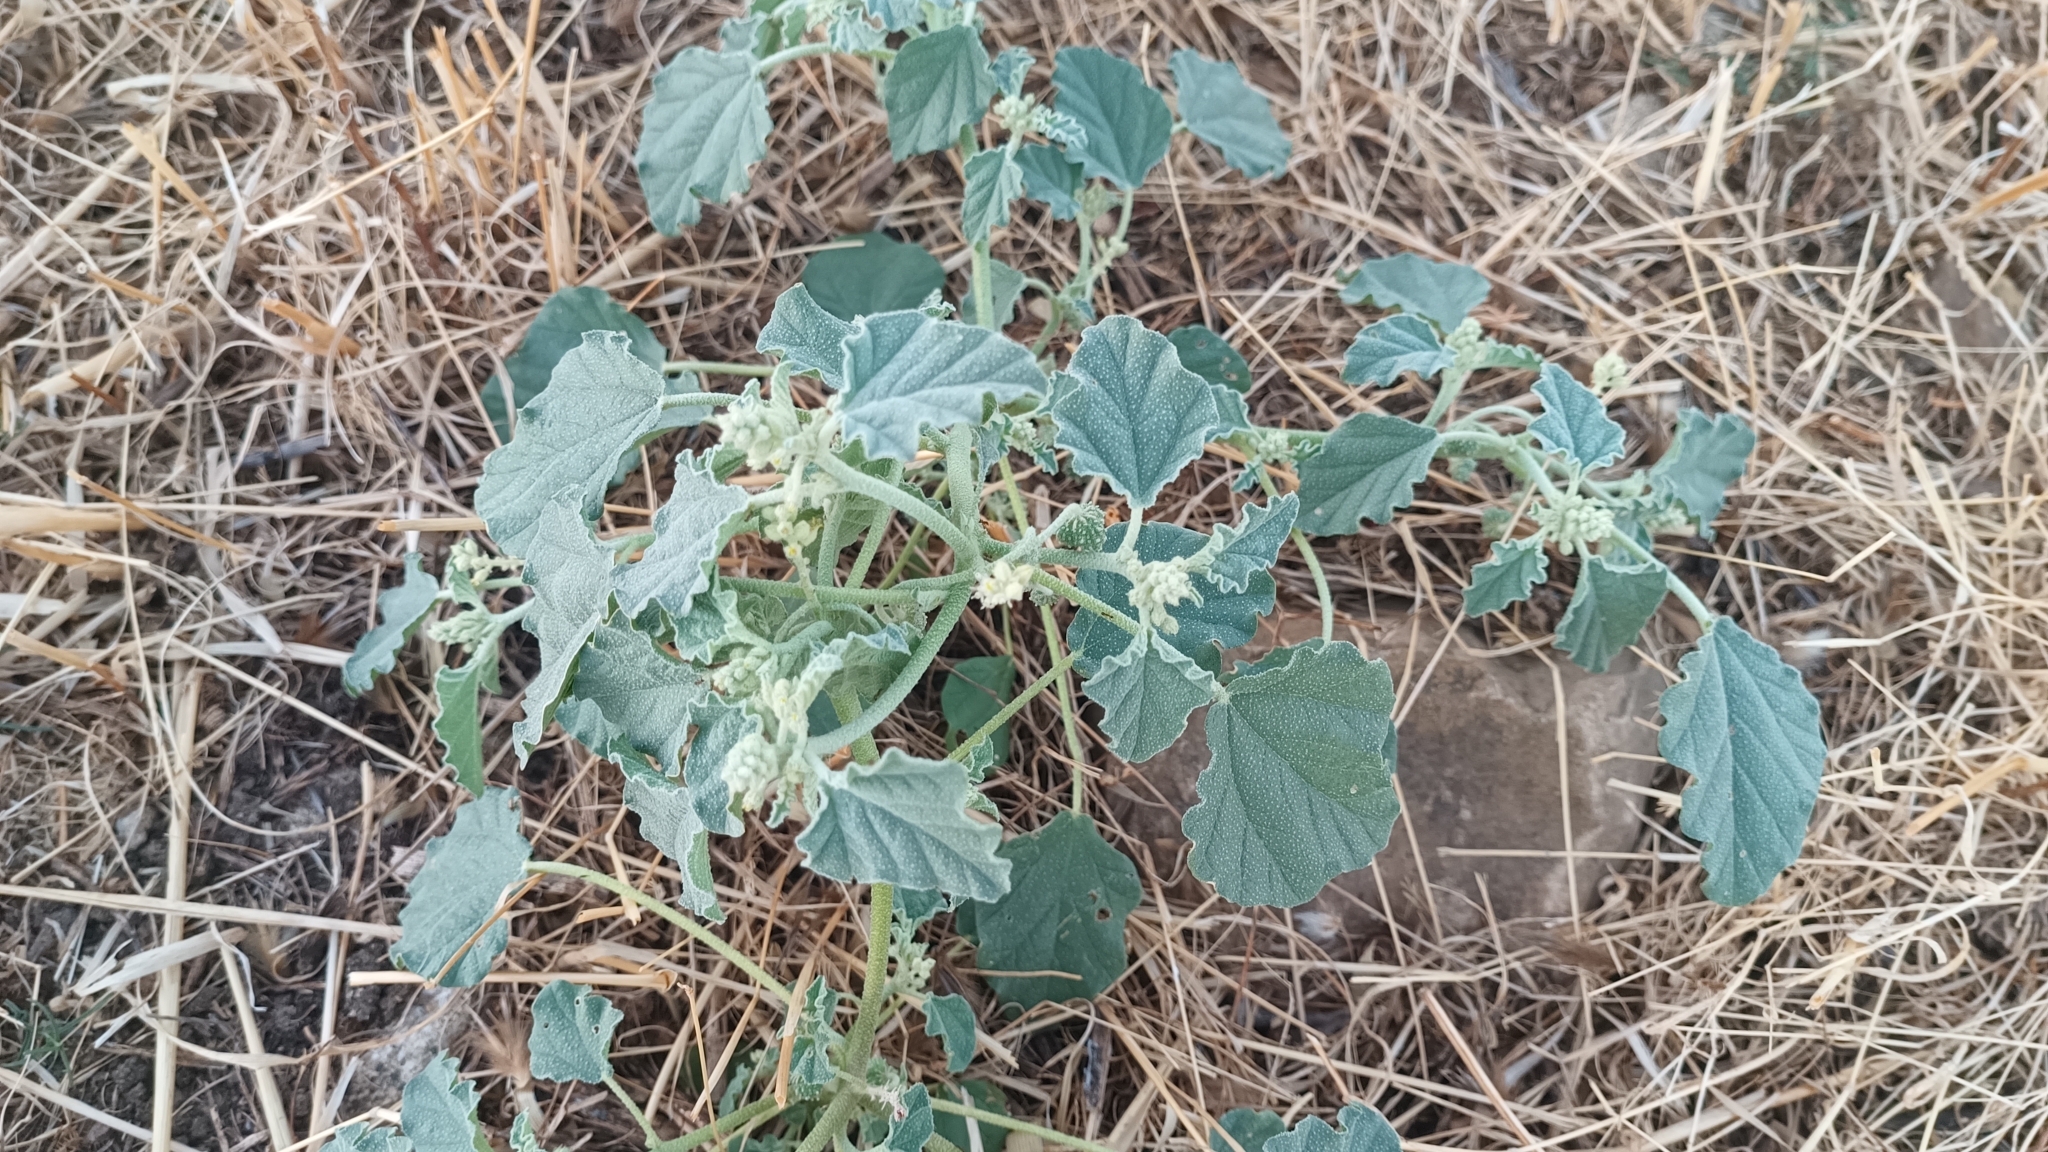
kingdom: Plantae
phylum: Tracheophyta
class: Magnoliopsida
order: Malpighiales
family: Euphorbiaceae
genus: Chrozophora
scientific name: Chrozophora tinctoria
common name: Dyer's litmus
